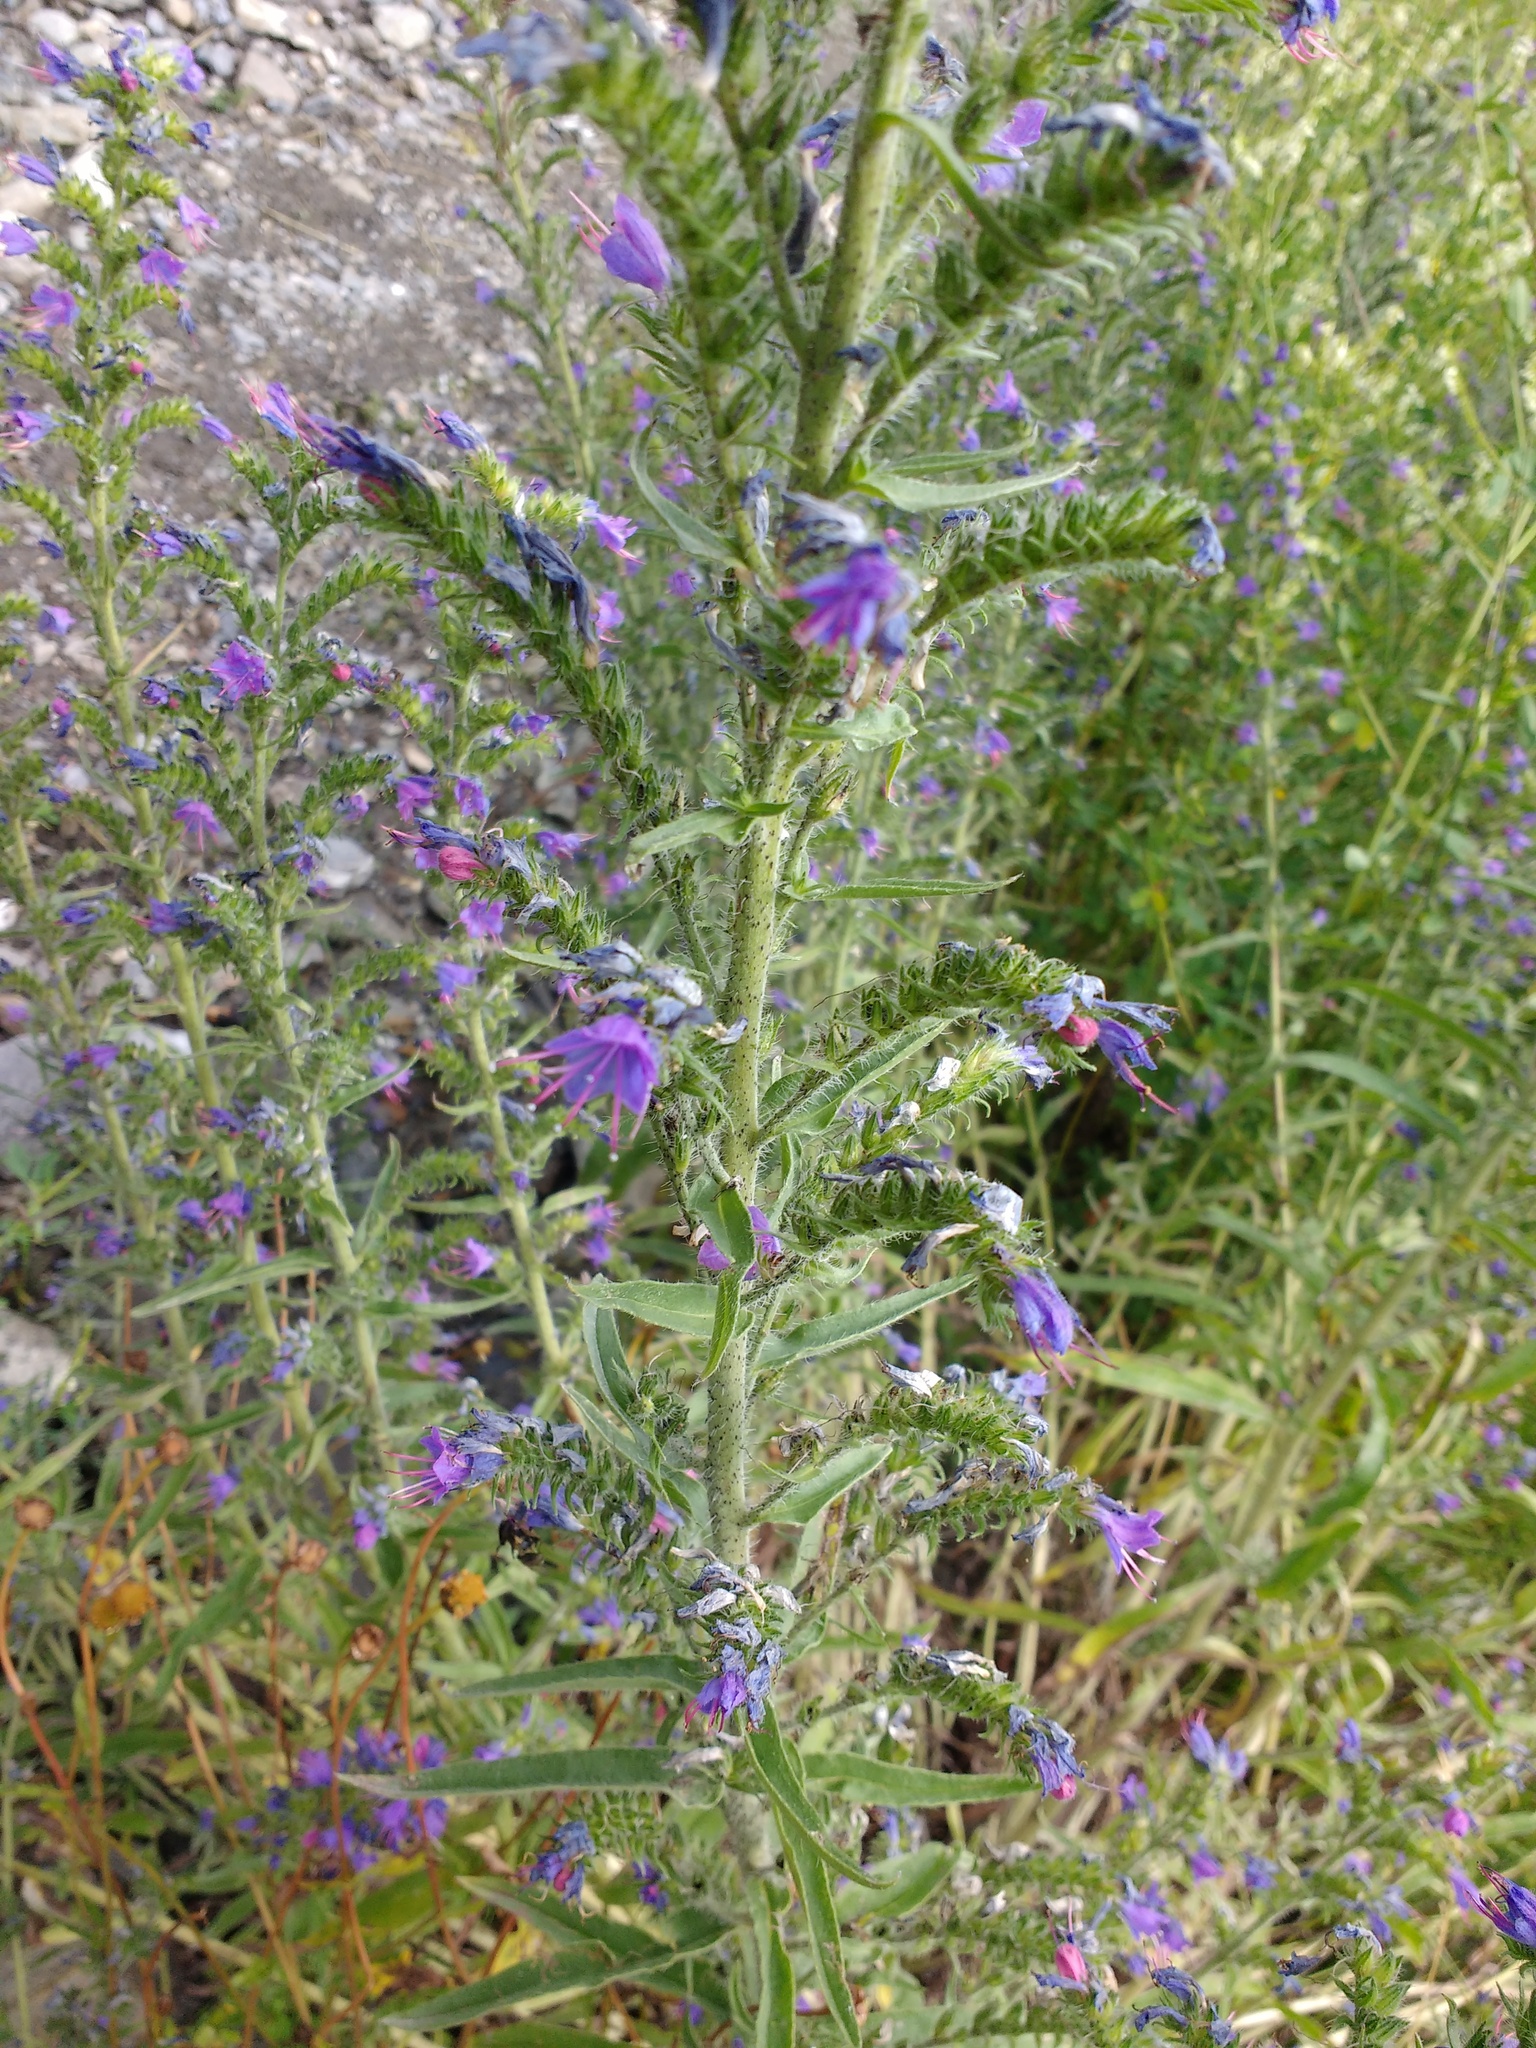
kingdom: Plantae
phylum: Tracheophyta
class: Magnoliopsida
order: Boraginales
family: Boraginaceae
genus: Echium
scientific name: Echium vulgare
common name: Common viper's bugloss
